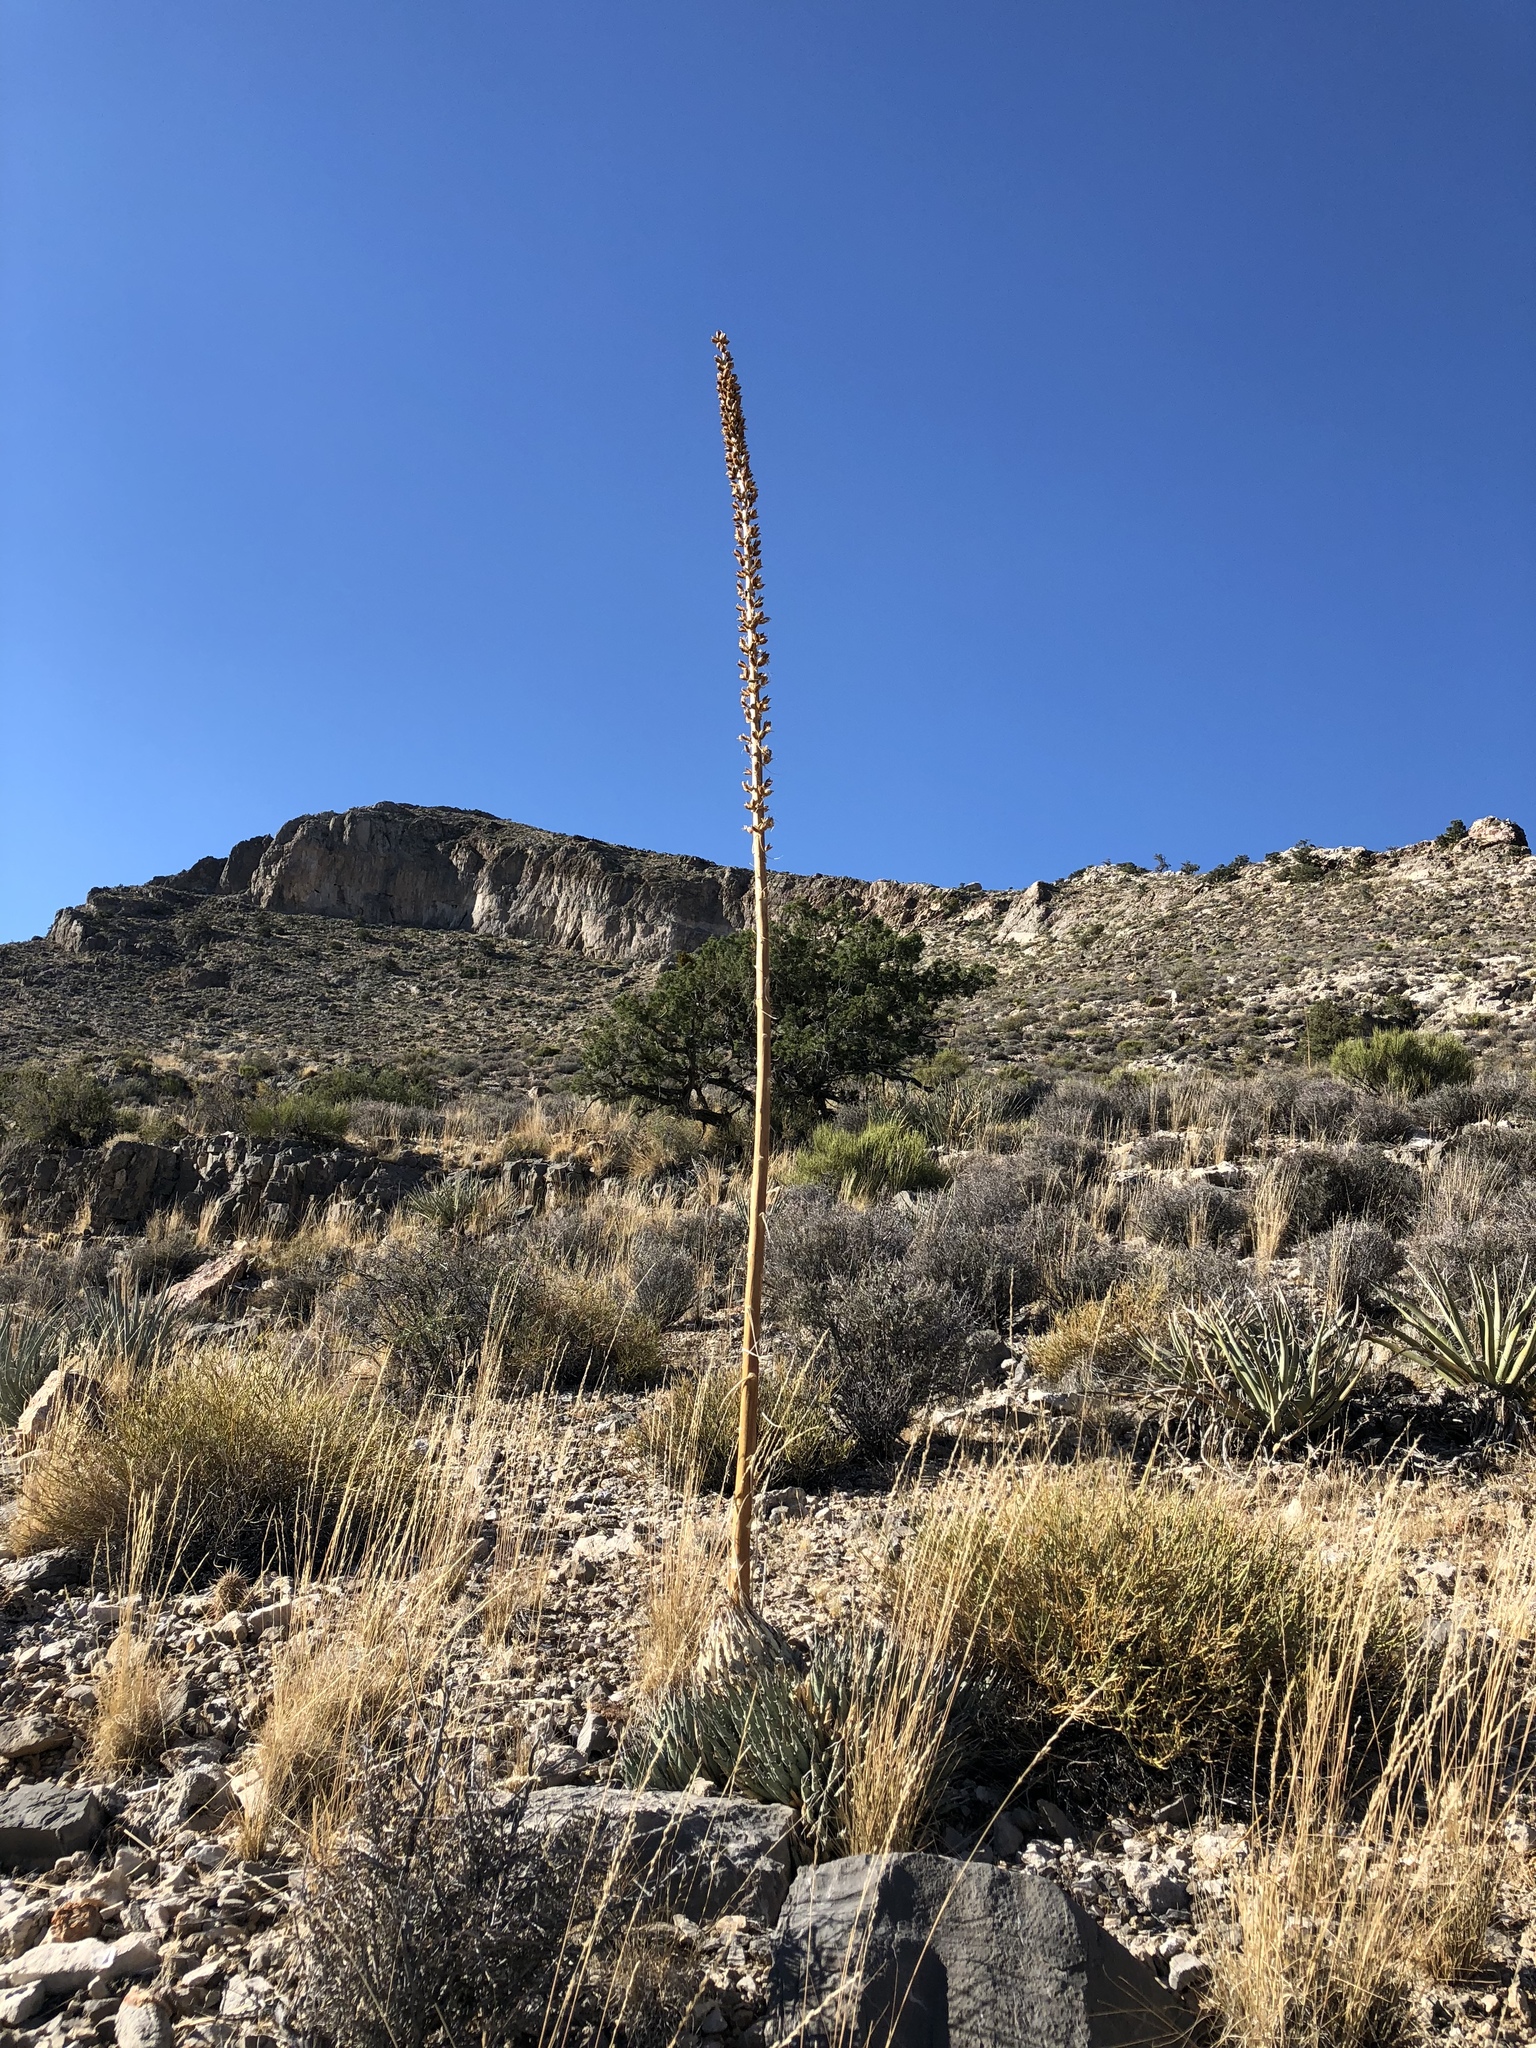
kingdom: Plantae
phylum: Tracheophyta
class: Liliopsida
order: Asparagales
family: Asparagaceae
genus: Agave
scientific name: Agave utahensis
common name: Utah agave
